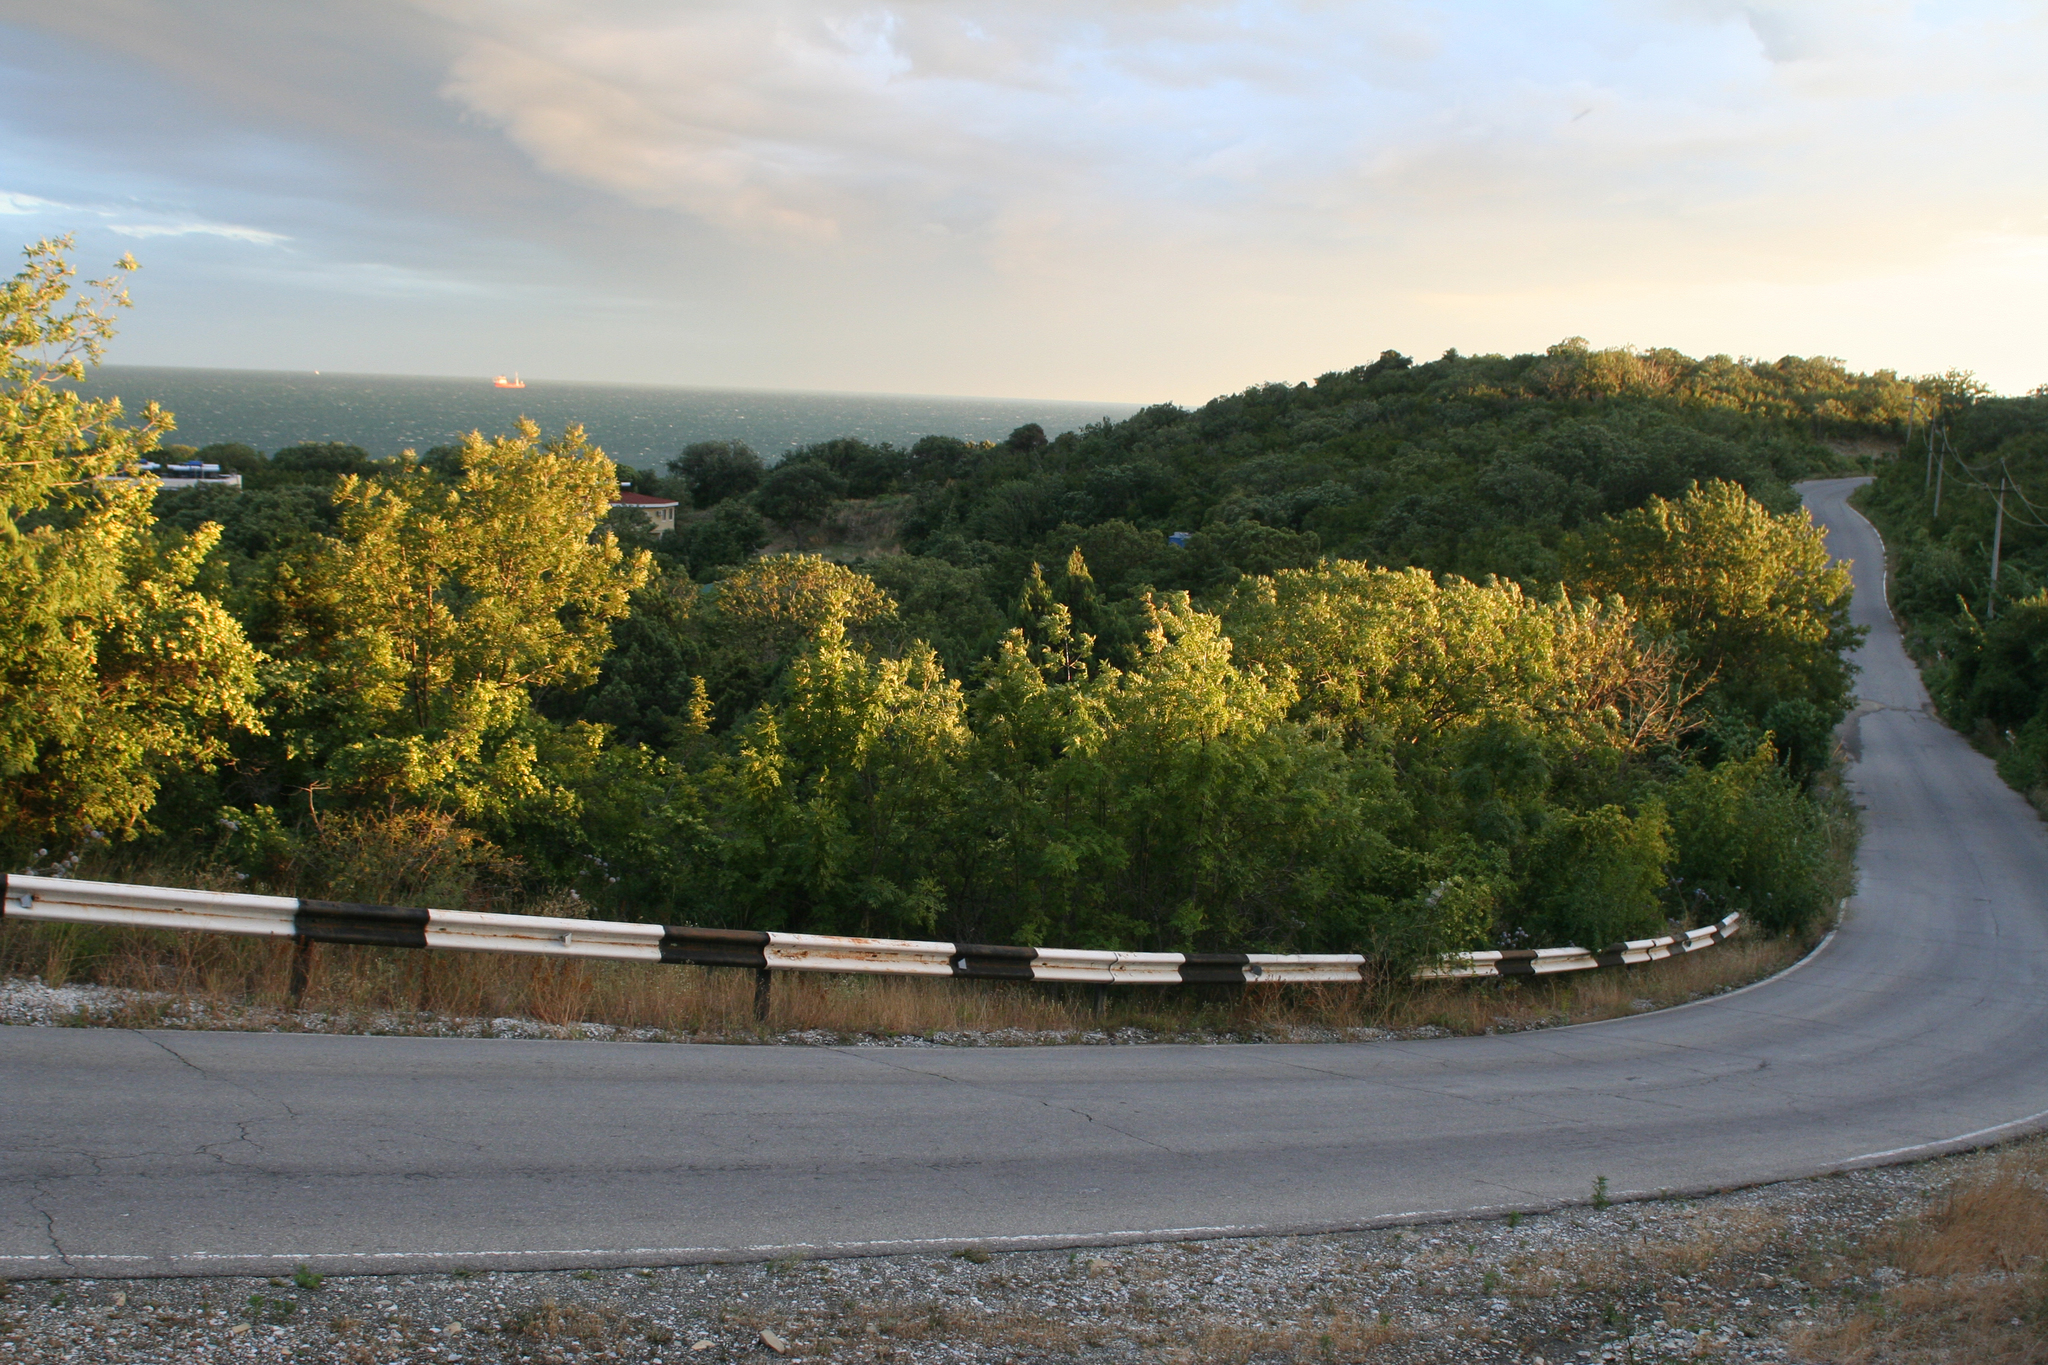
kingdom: Plantae
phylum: Tracheophyta
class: Magnoliopsida
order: Sapindales
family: Anacardiaceae
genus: Pistacia
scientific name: Pistacia atlantica
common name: Mt. atlas mastic tree
